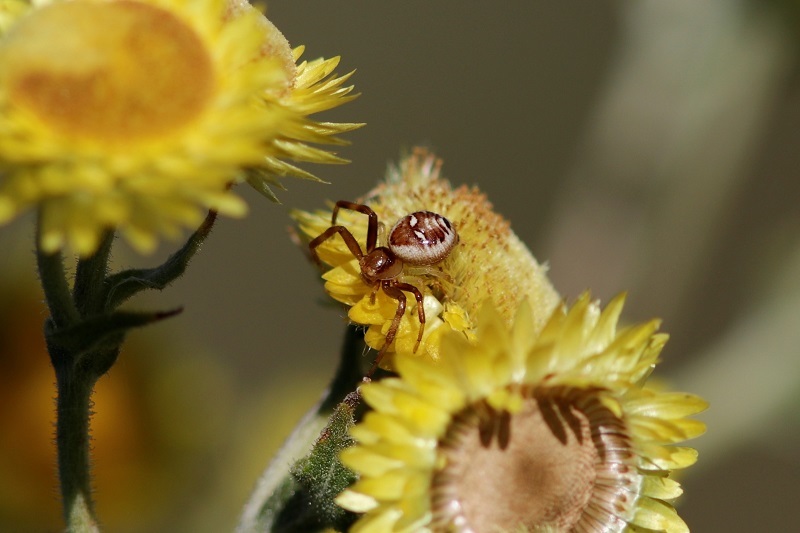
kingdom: Animalia
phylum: Arthropoda
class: Arachnida
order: Araneae
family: Thomisidae
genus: Synema
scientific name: Synema imitatrix
